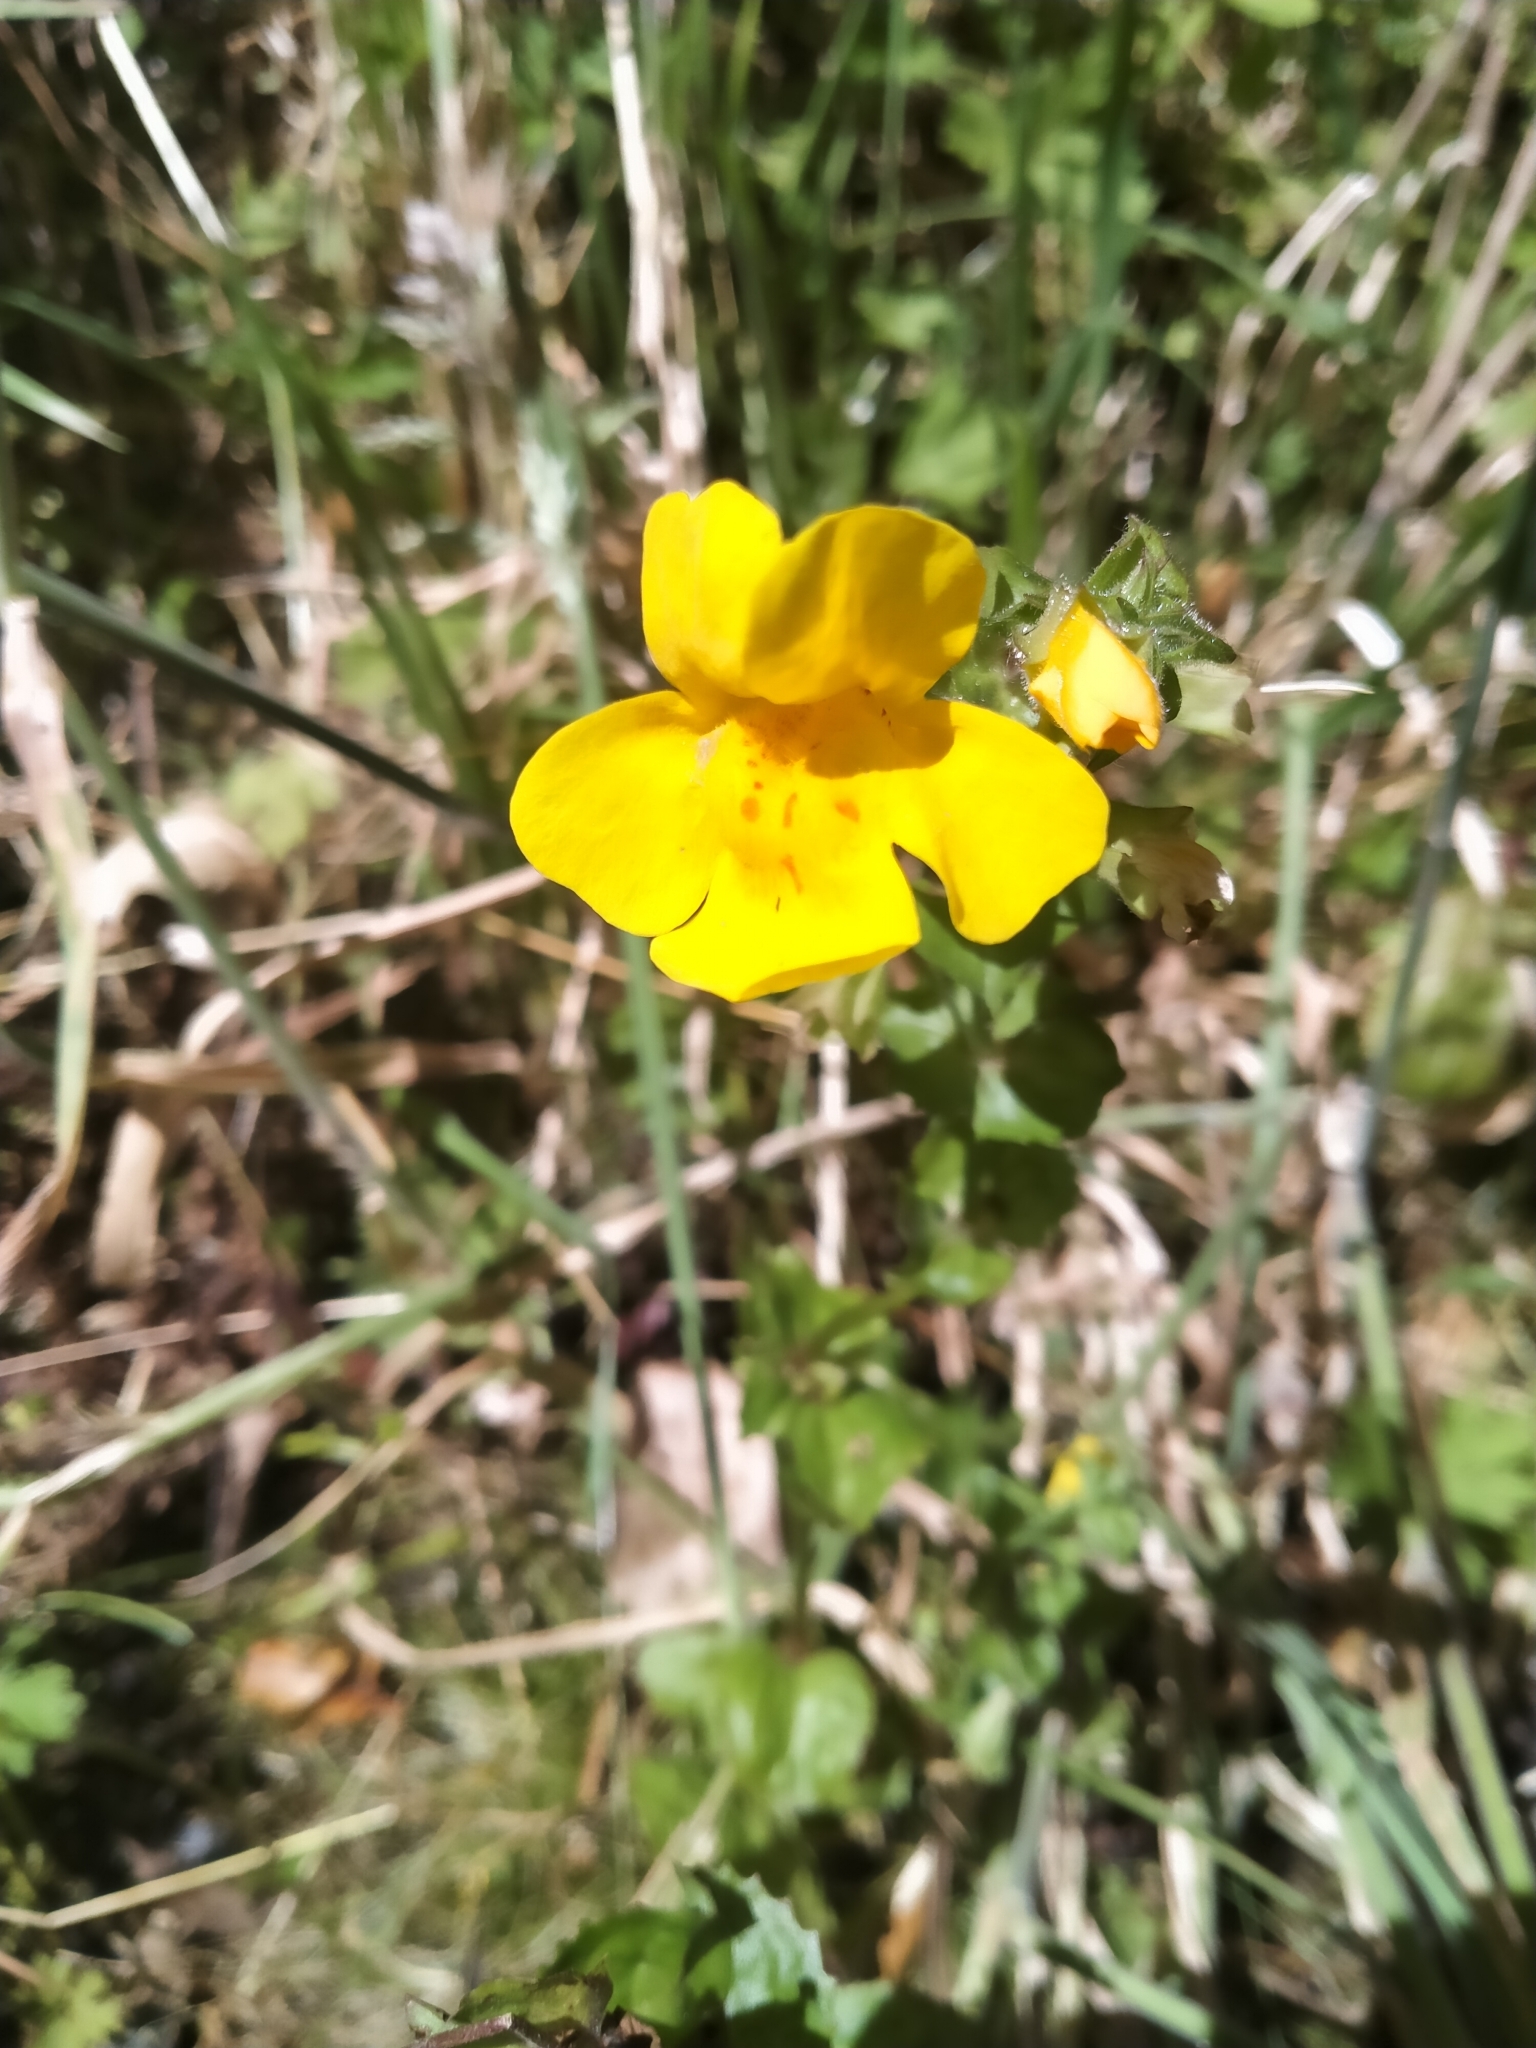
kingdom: Plantae
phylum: Tracheophyta
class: Magnoliopsida
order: Lamiales
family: Phrymaceae
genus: Erythranthe
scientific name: Erythranthe guttata
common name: Monkeyflower
